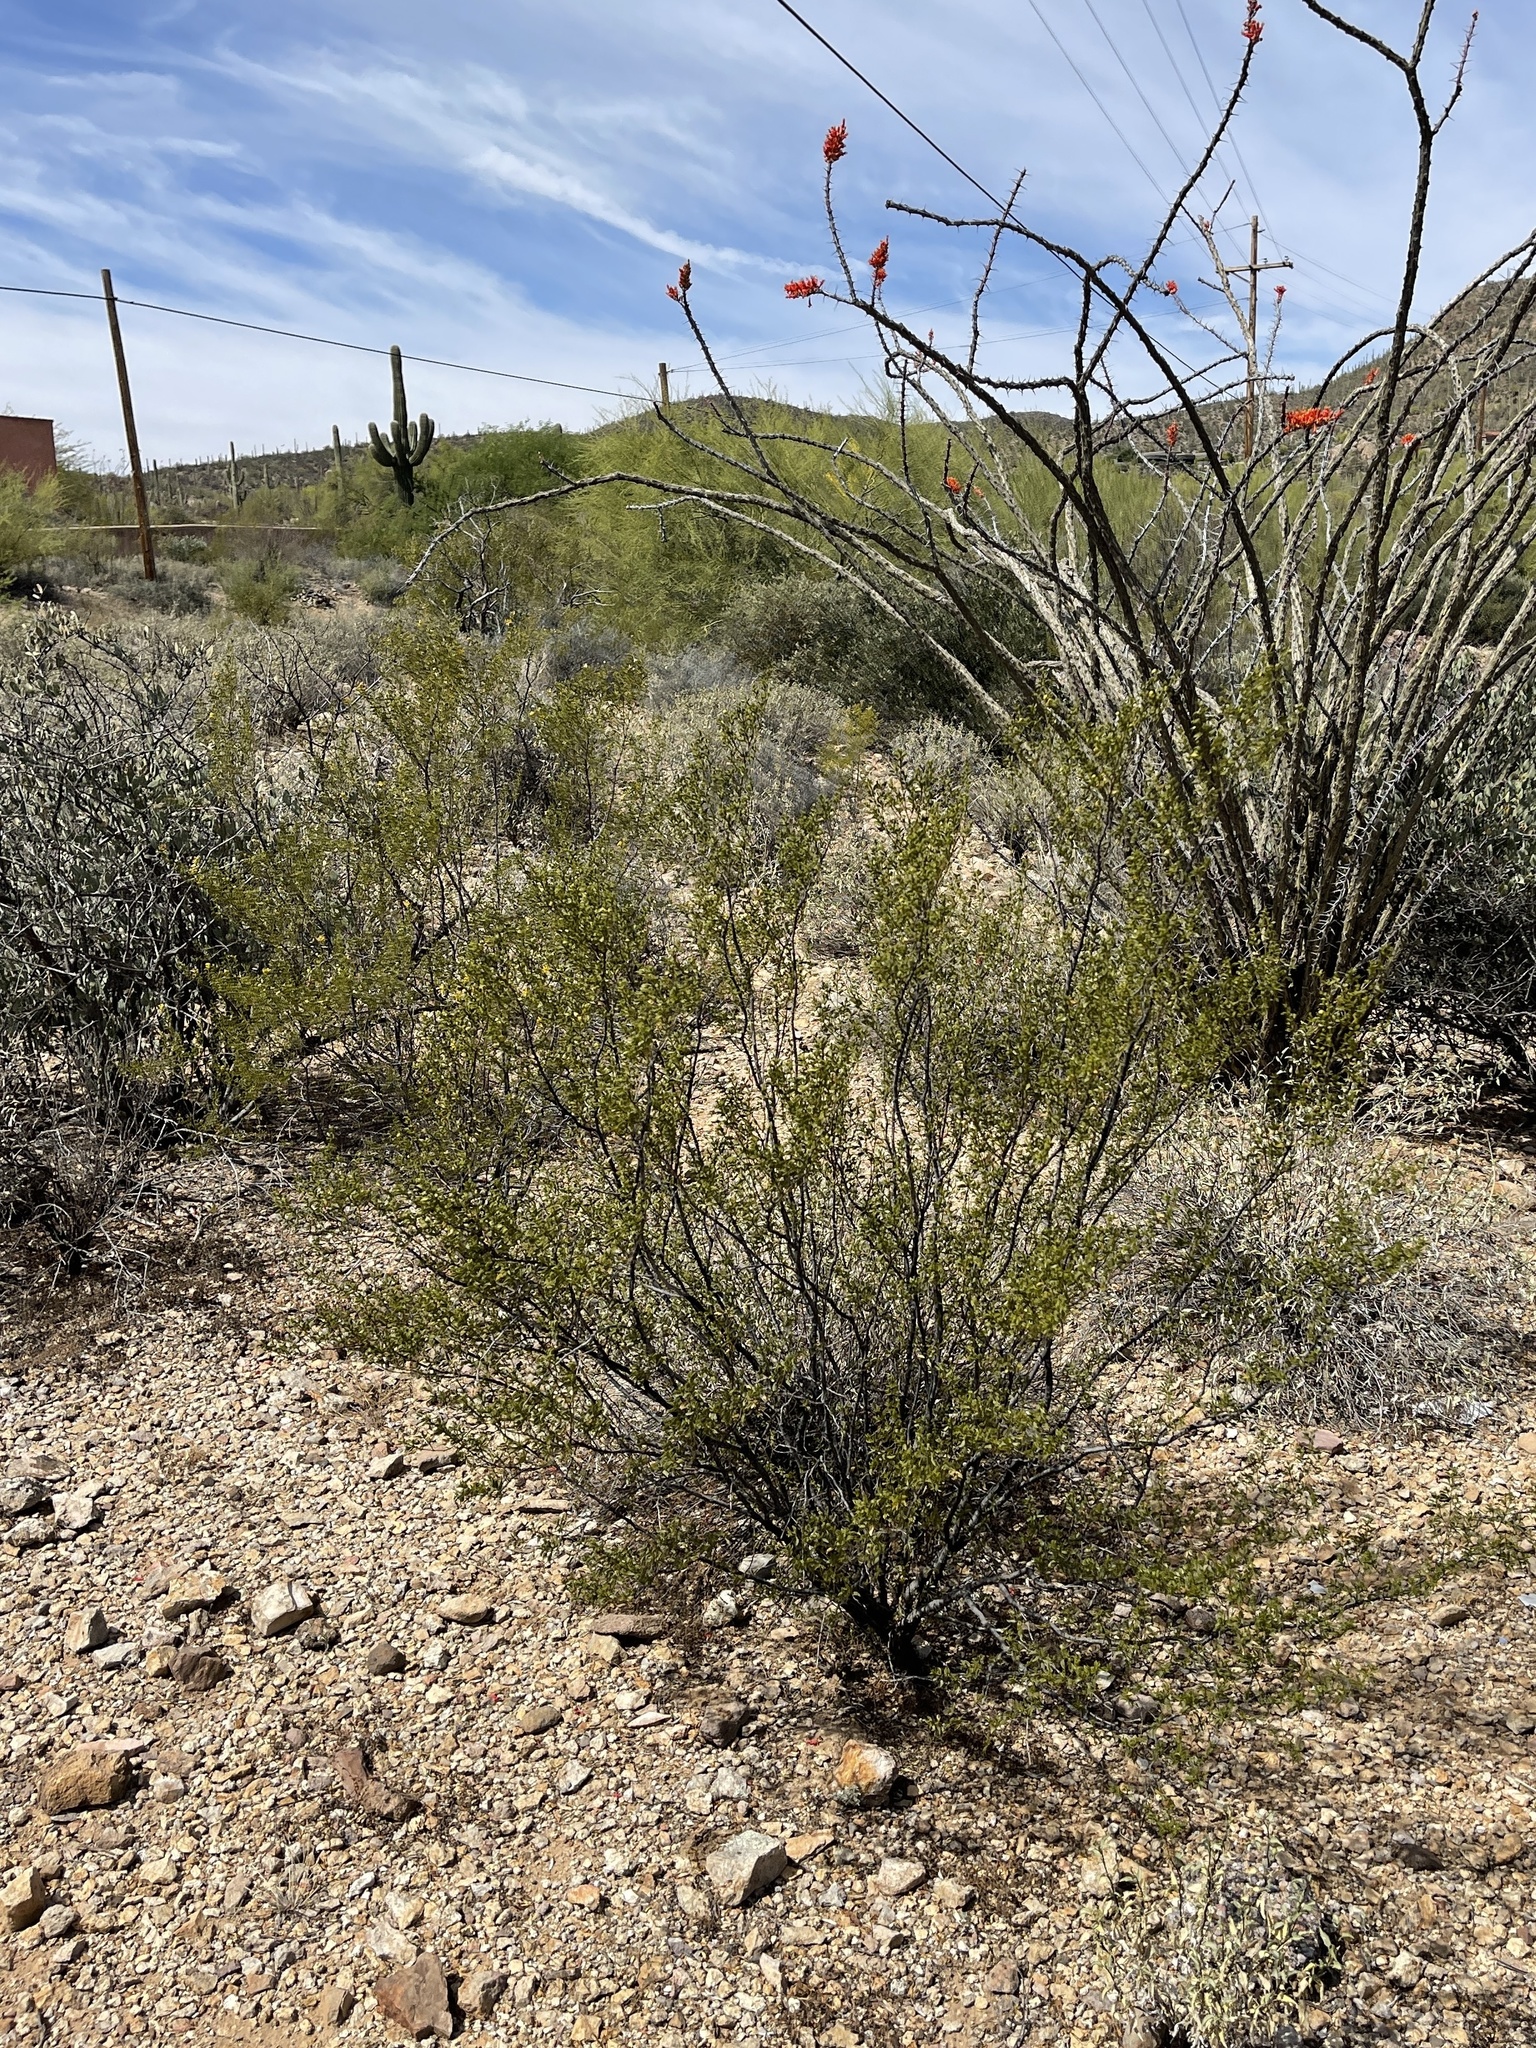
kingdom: Plantae
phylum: Tracheophyta
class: Magnoliopsida
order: Zygophyllales
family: Zygophyllaceae
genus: Larrea
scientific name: Larrea tridentata
